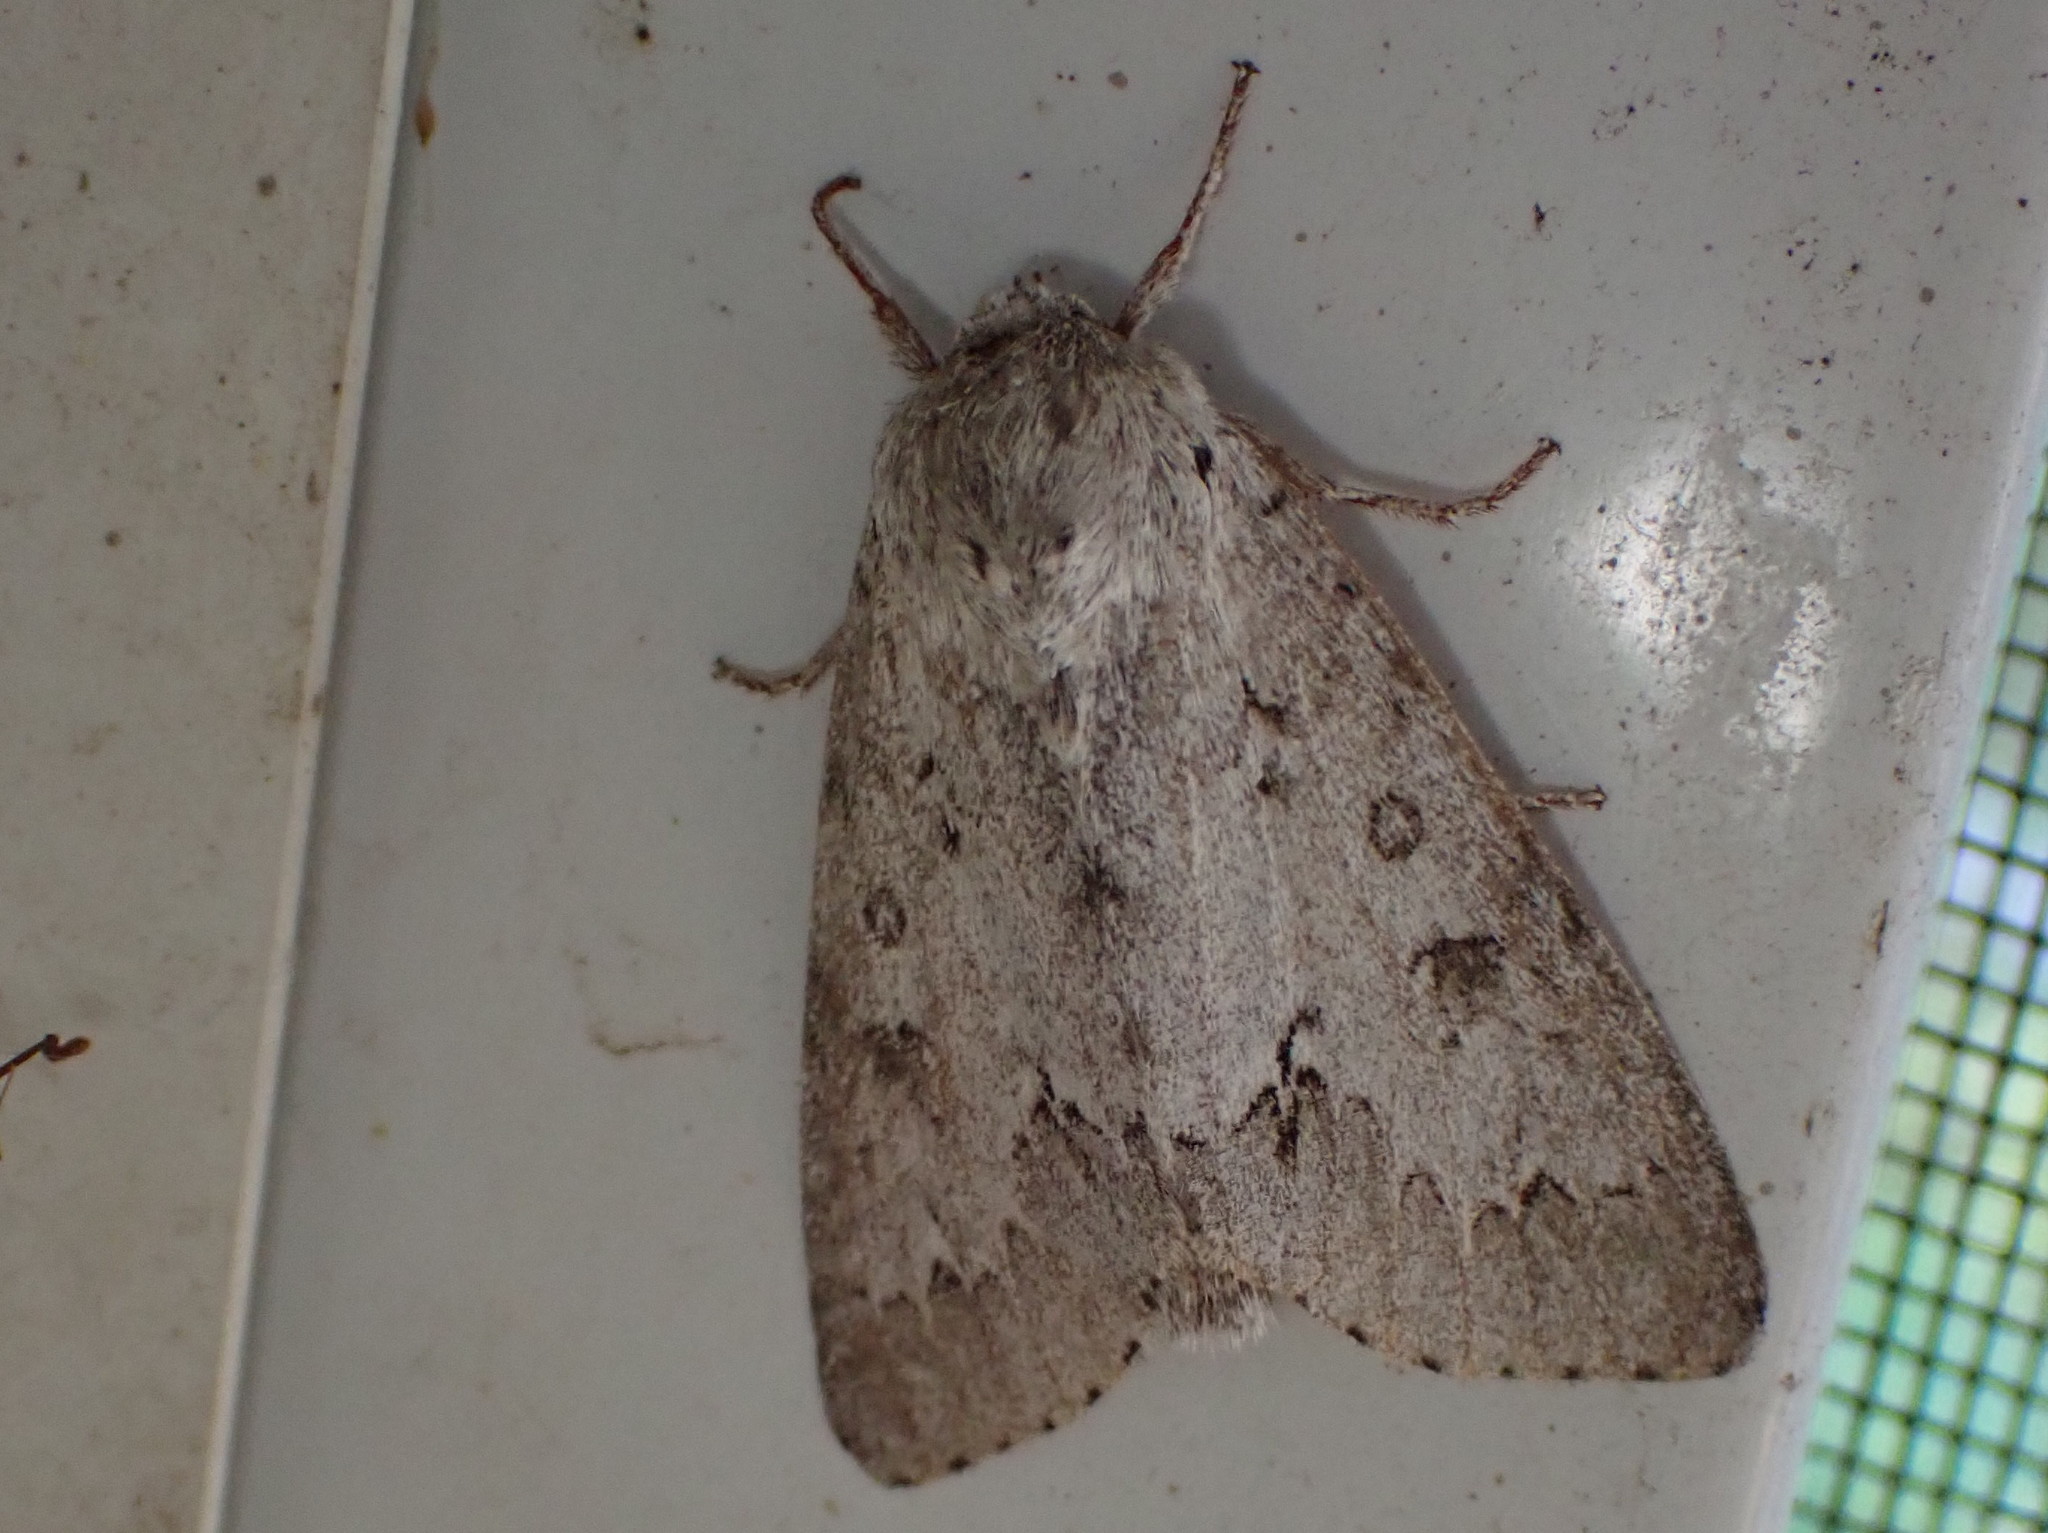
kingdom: Animalia
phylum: Arthropoda
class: Insecta
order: Lepidoptera
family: Noctuidae
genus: Acronicta
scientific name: Acronicta insita
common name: Large gray dagger
